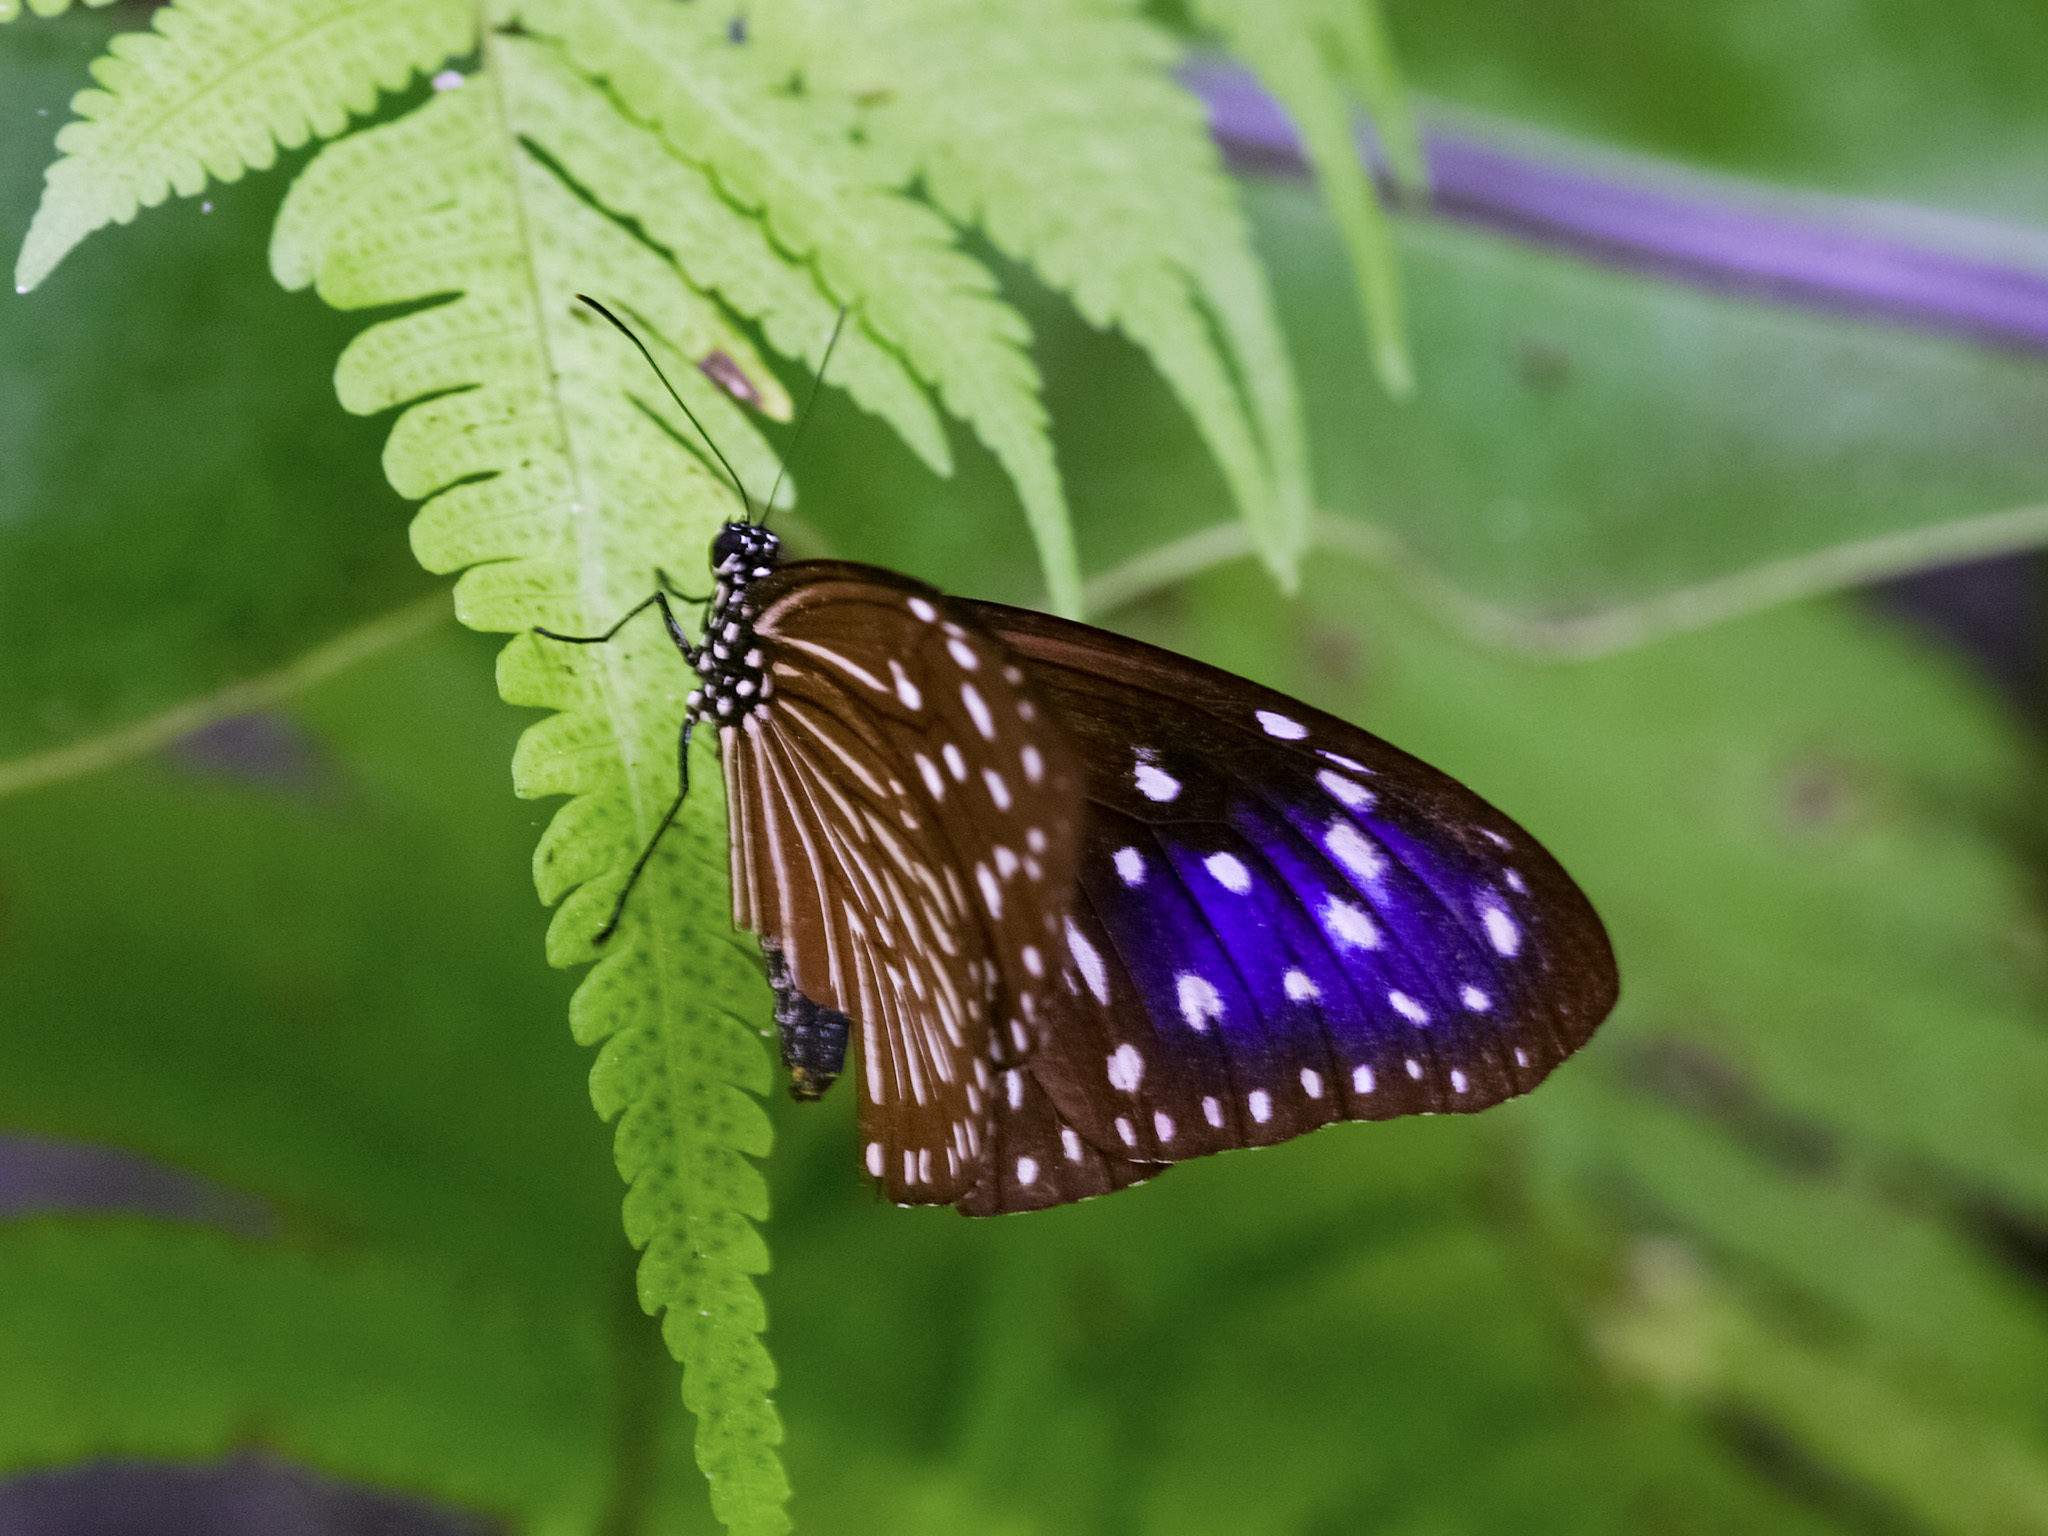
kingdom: Animalia
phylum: Arthropoda
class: Insecta
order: Lepidoptera
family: Nymphalidae
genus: Euploea
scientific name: Euploea mulciber
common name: Striped blue crow butterfly
